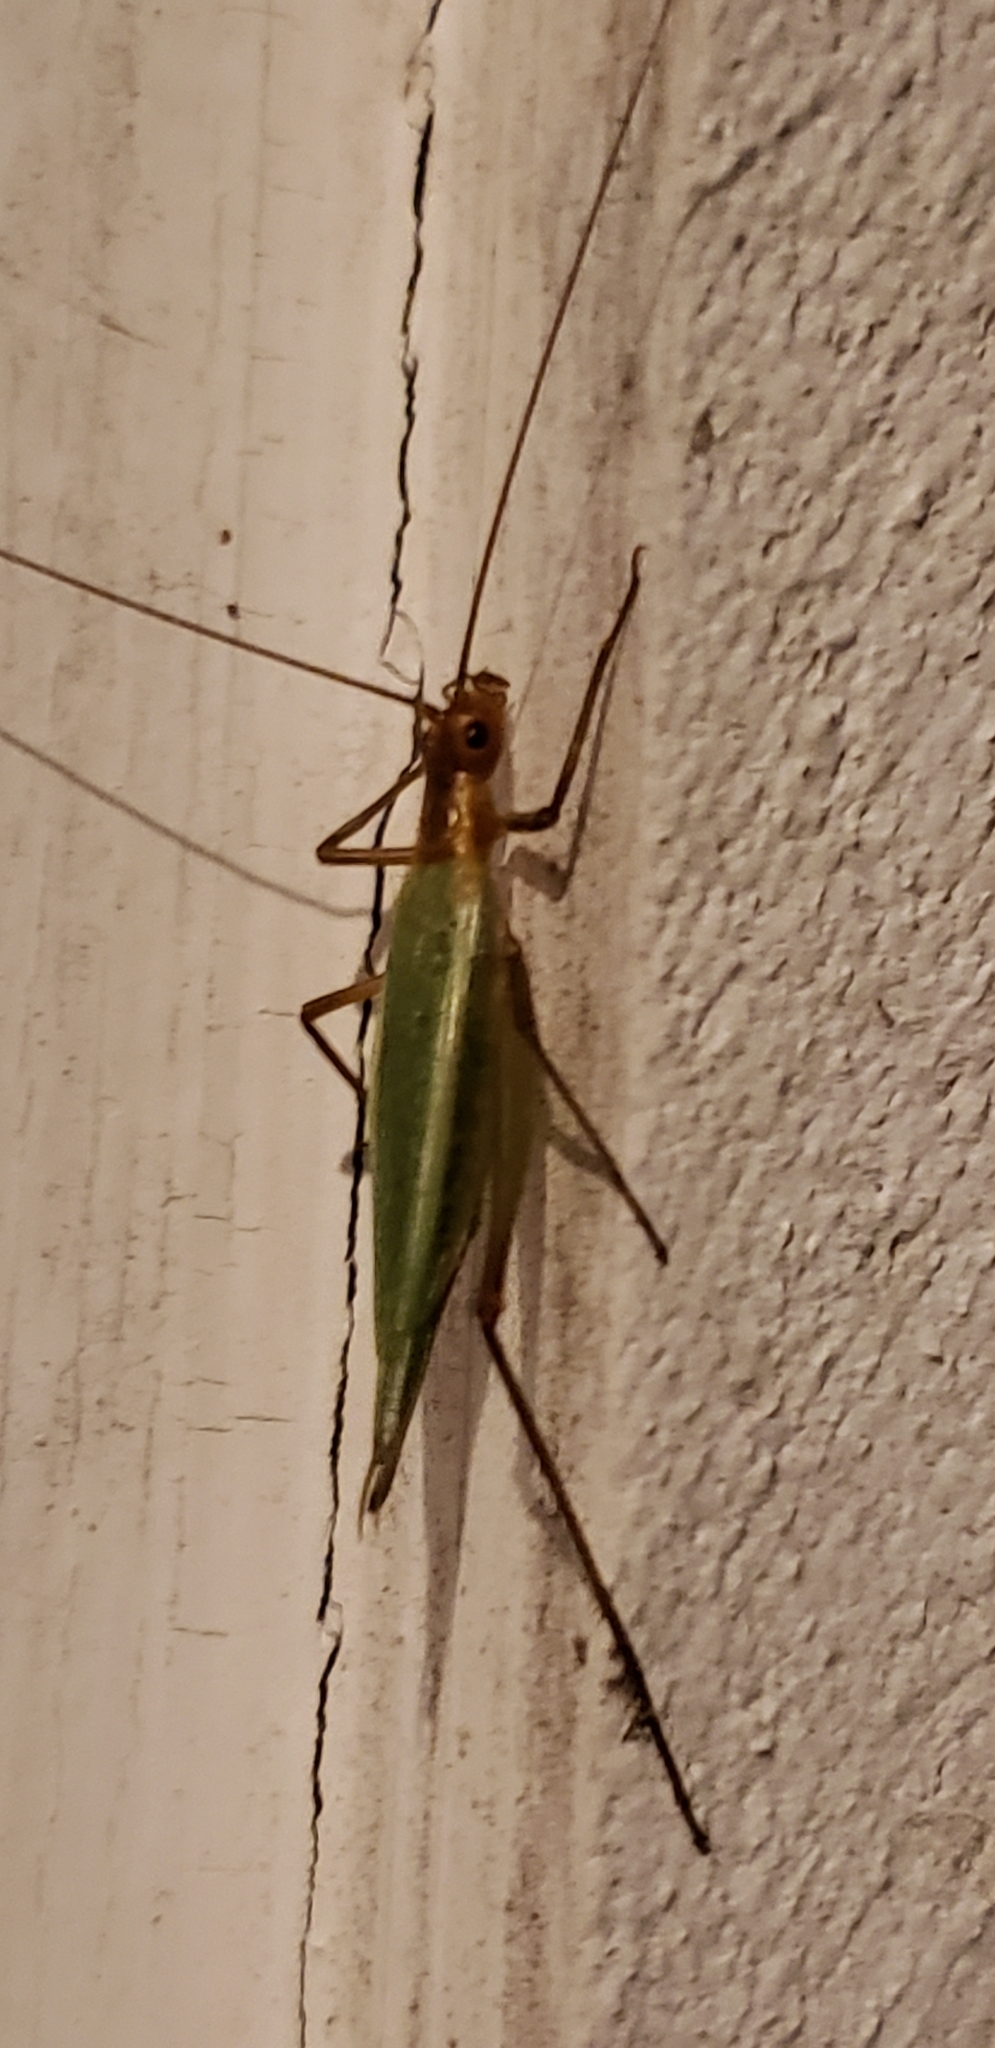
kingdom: Animalia
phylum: Arthropoda
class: Insecta
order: Orthoptera
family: Gryllidae
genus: Oecanthus
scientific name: Oecanthus pini
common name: Pine tree cricket
